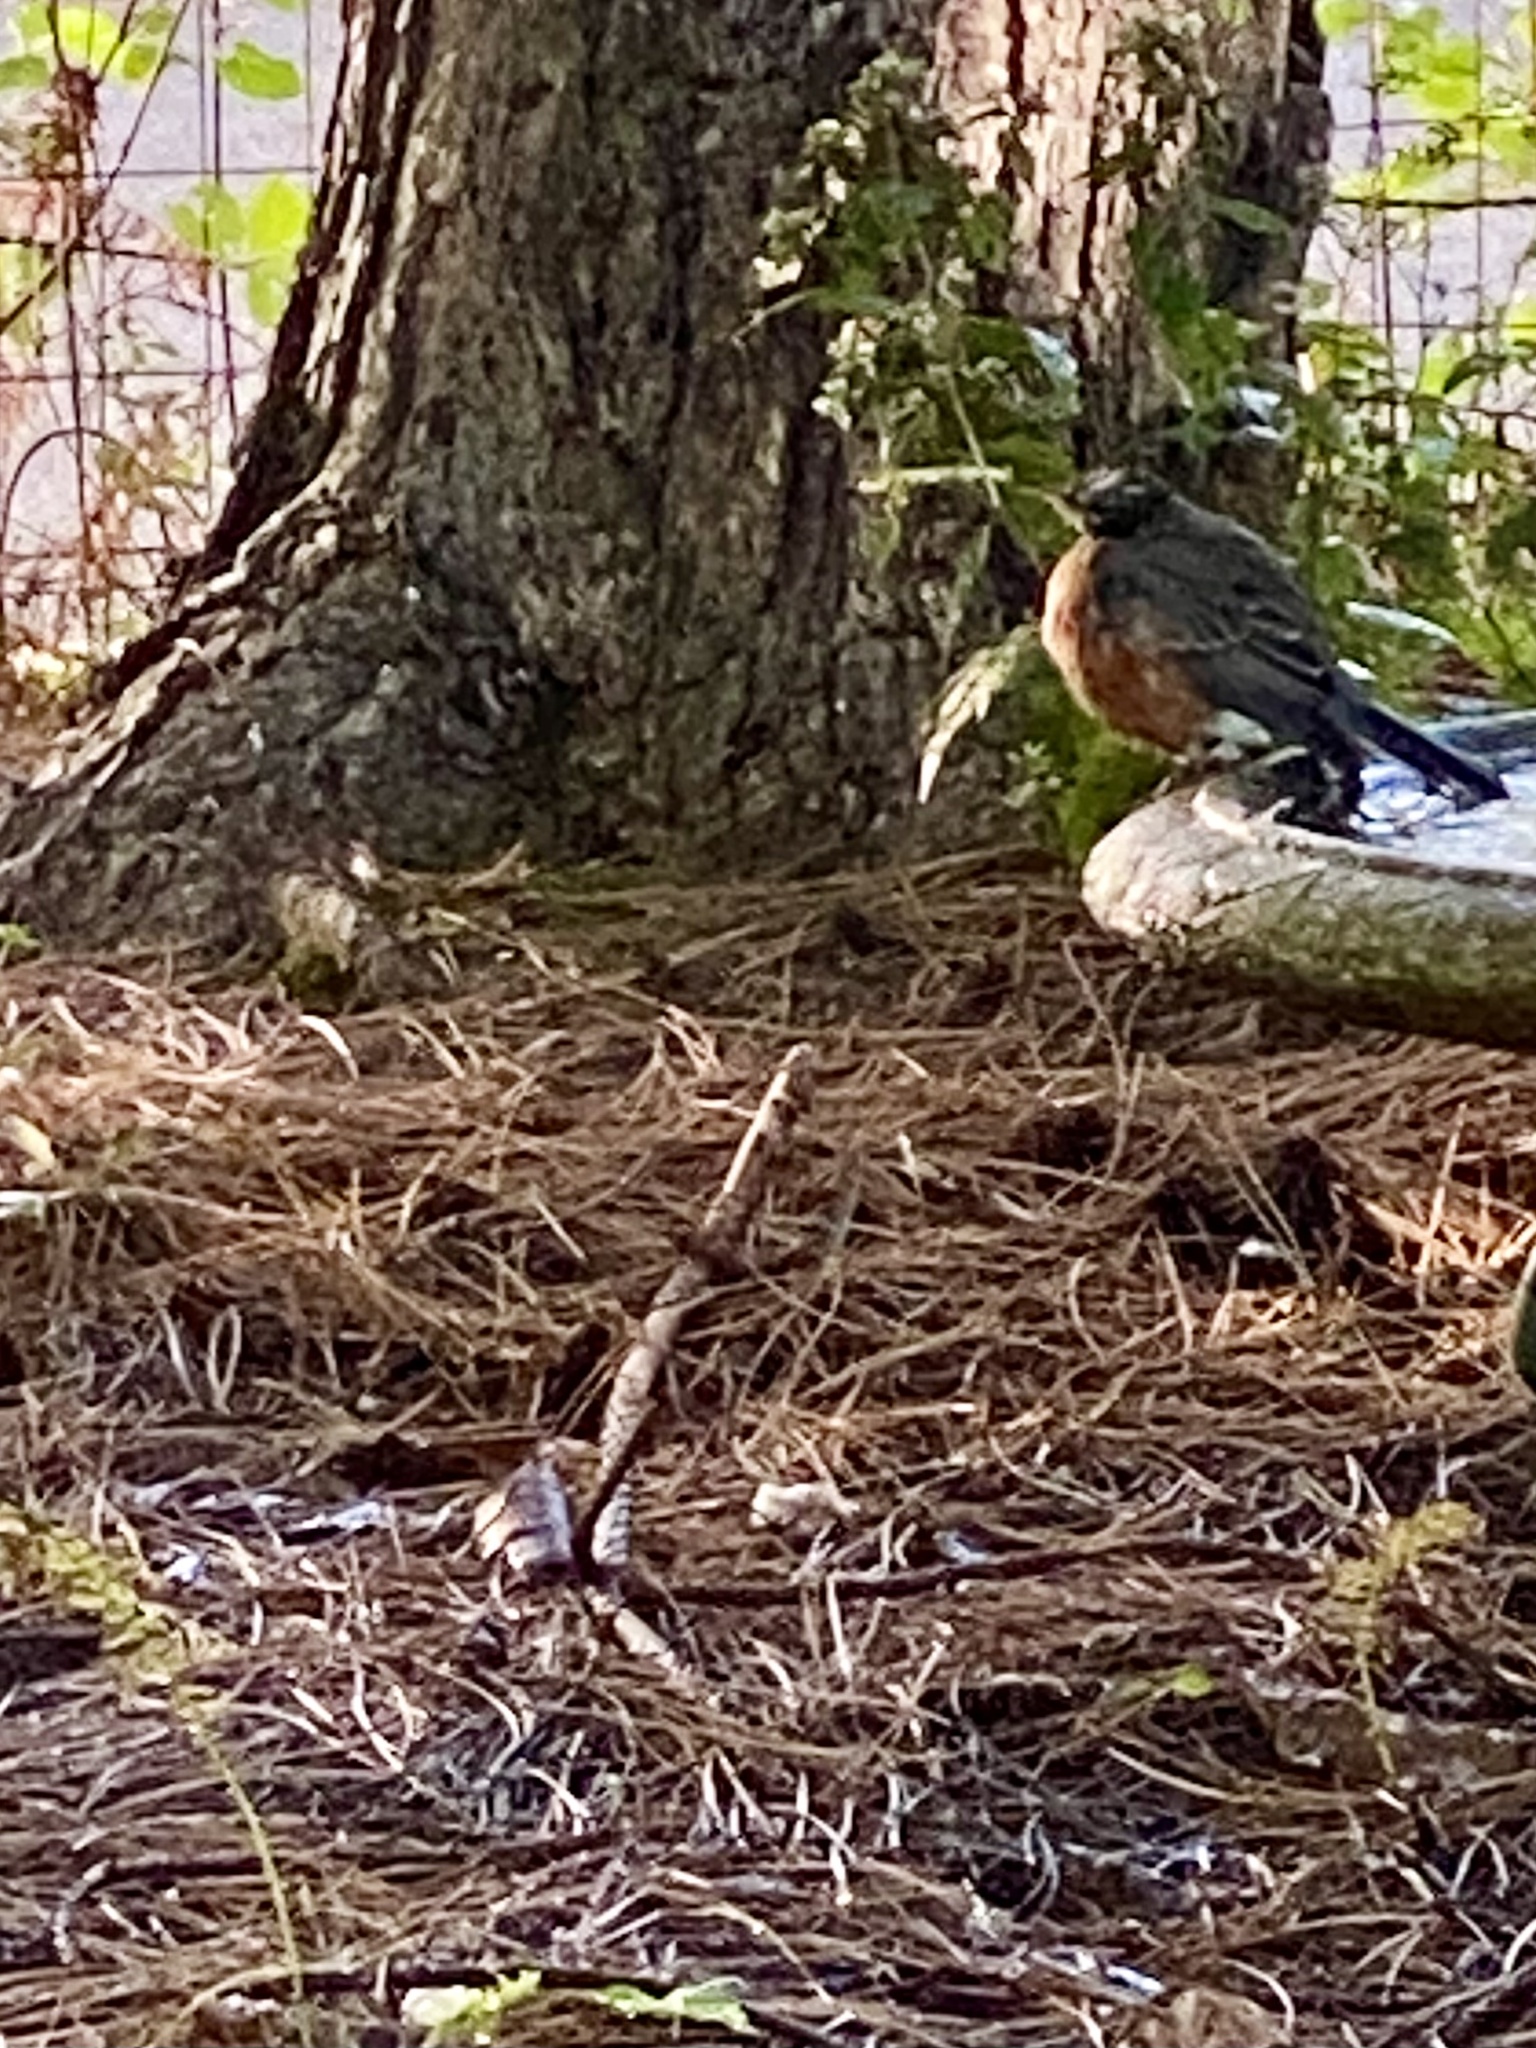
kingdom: Animalia
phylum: Chordata
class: Aves
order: Passeriformes
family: Turdidae
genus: Turdus
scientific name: Turdus migratorius
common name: American robin
